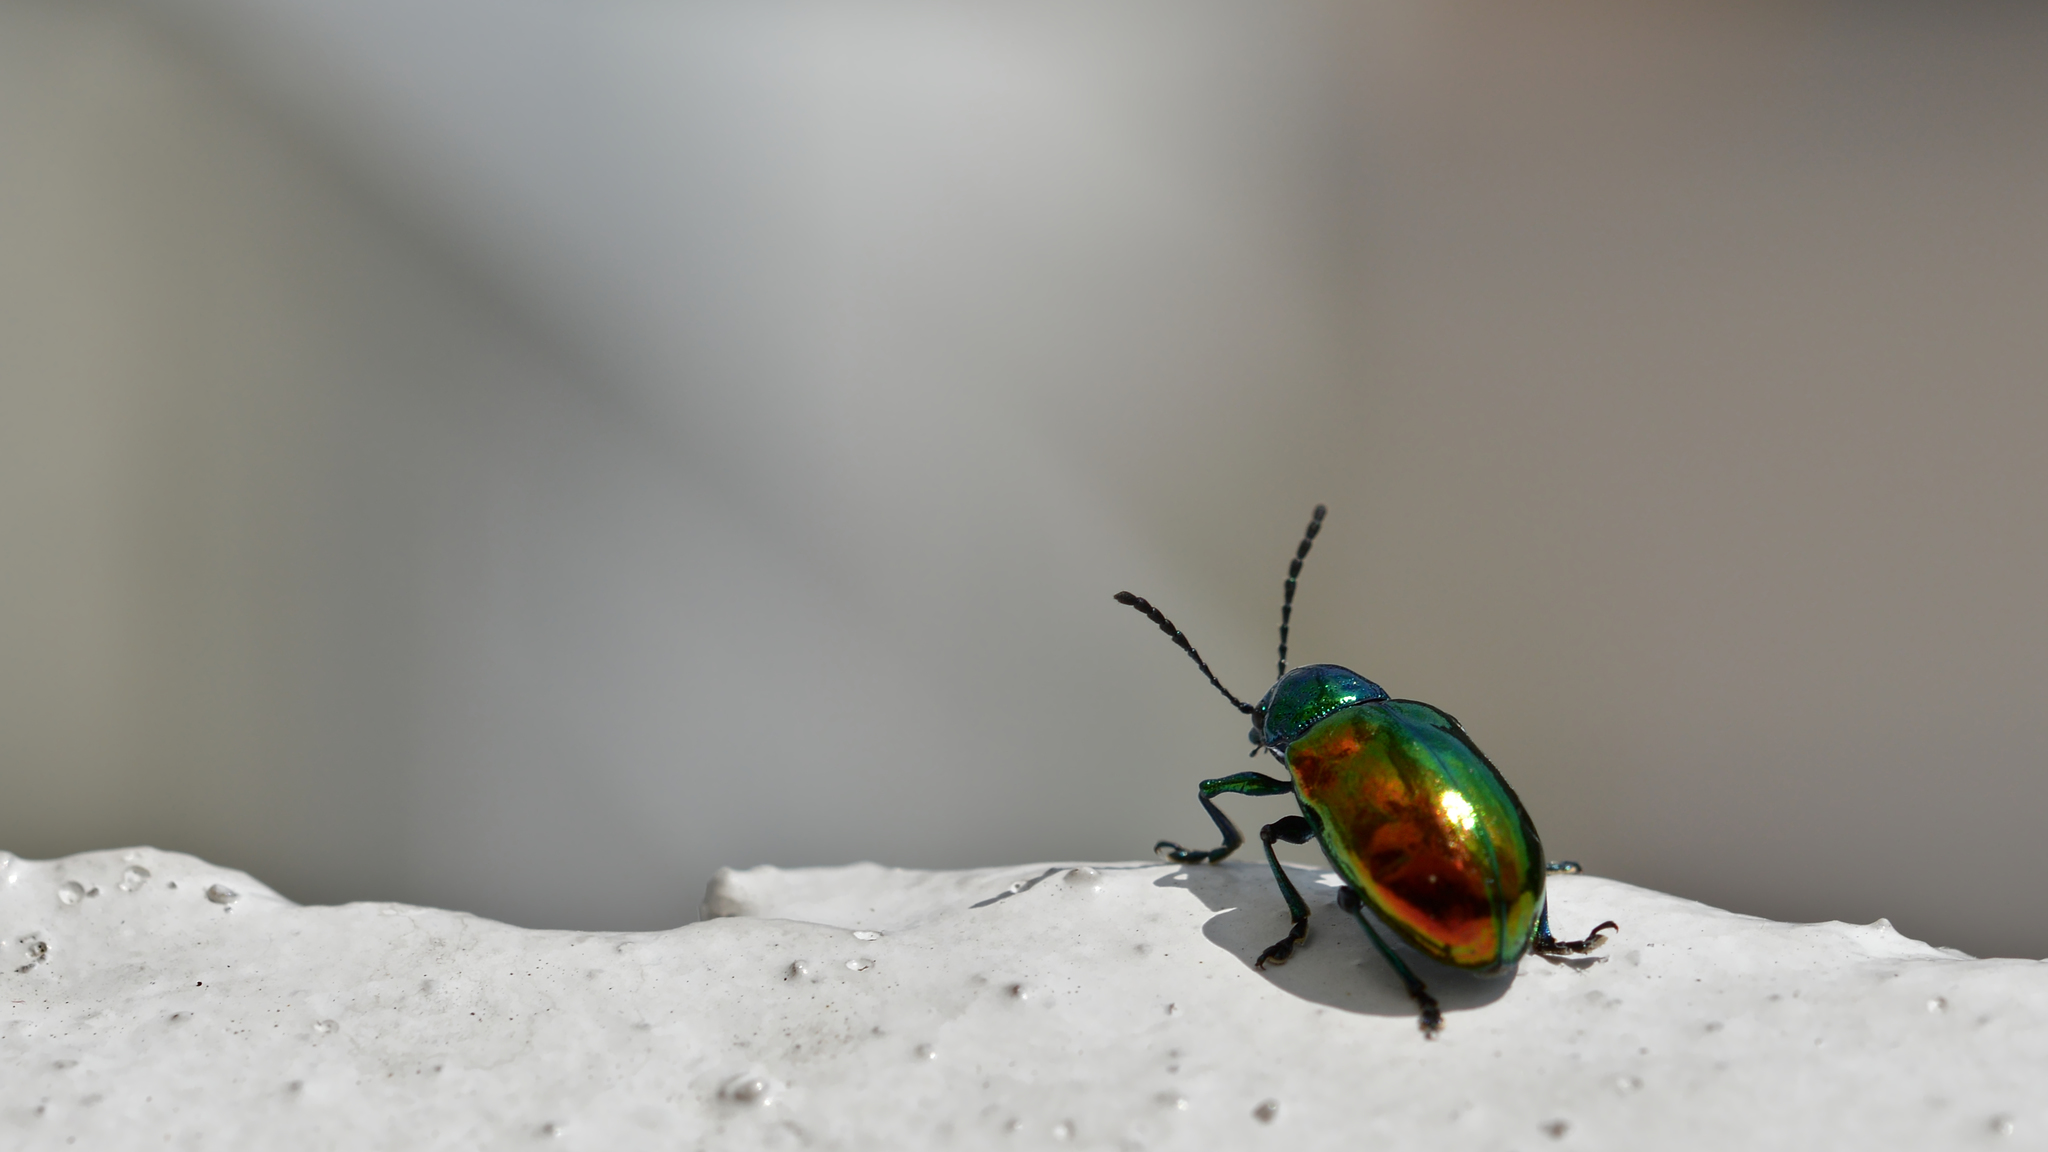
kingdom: Animalia
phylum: Arthropoda
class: Insecta
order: Coleoptera
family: Chrysomelidae
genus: Chrysochus
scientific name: Chrysochus auratus
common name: Dogbane leaf beetle
